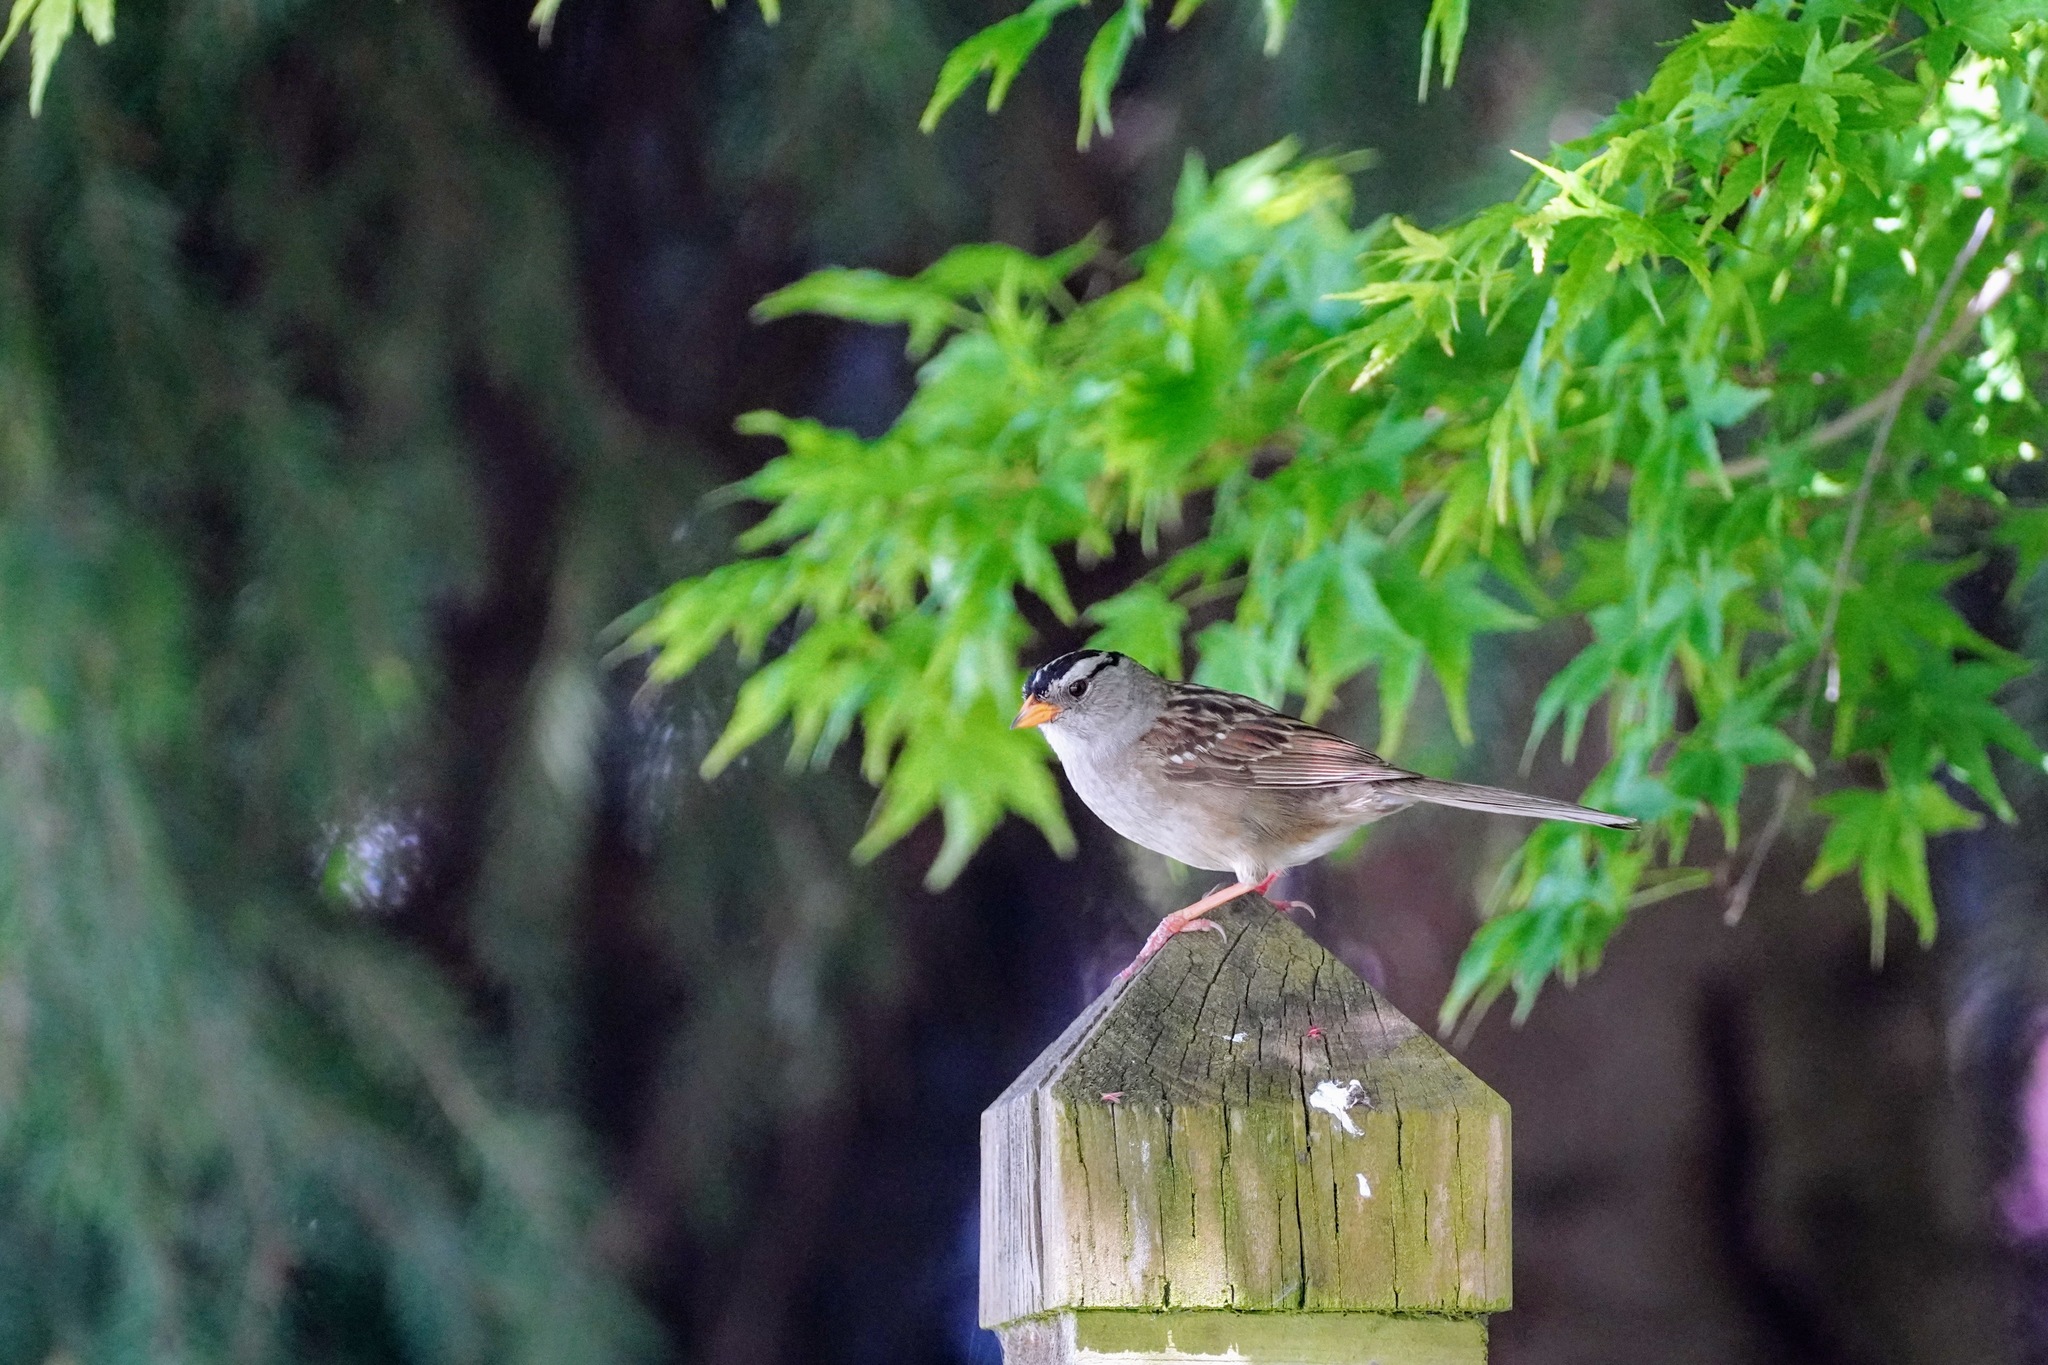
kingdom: Animalia
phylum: Chordata
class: Aves
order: Passeriformes
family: Passerellidae
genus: Zonotrichia
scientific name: Zonotrichia leucophrys
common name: White-crowned sparrow
